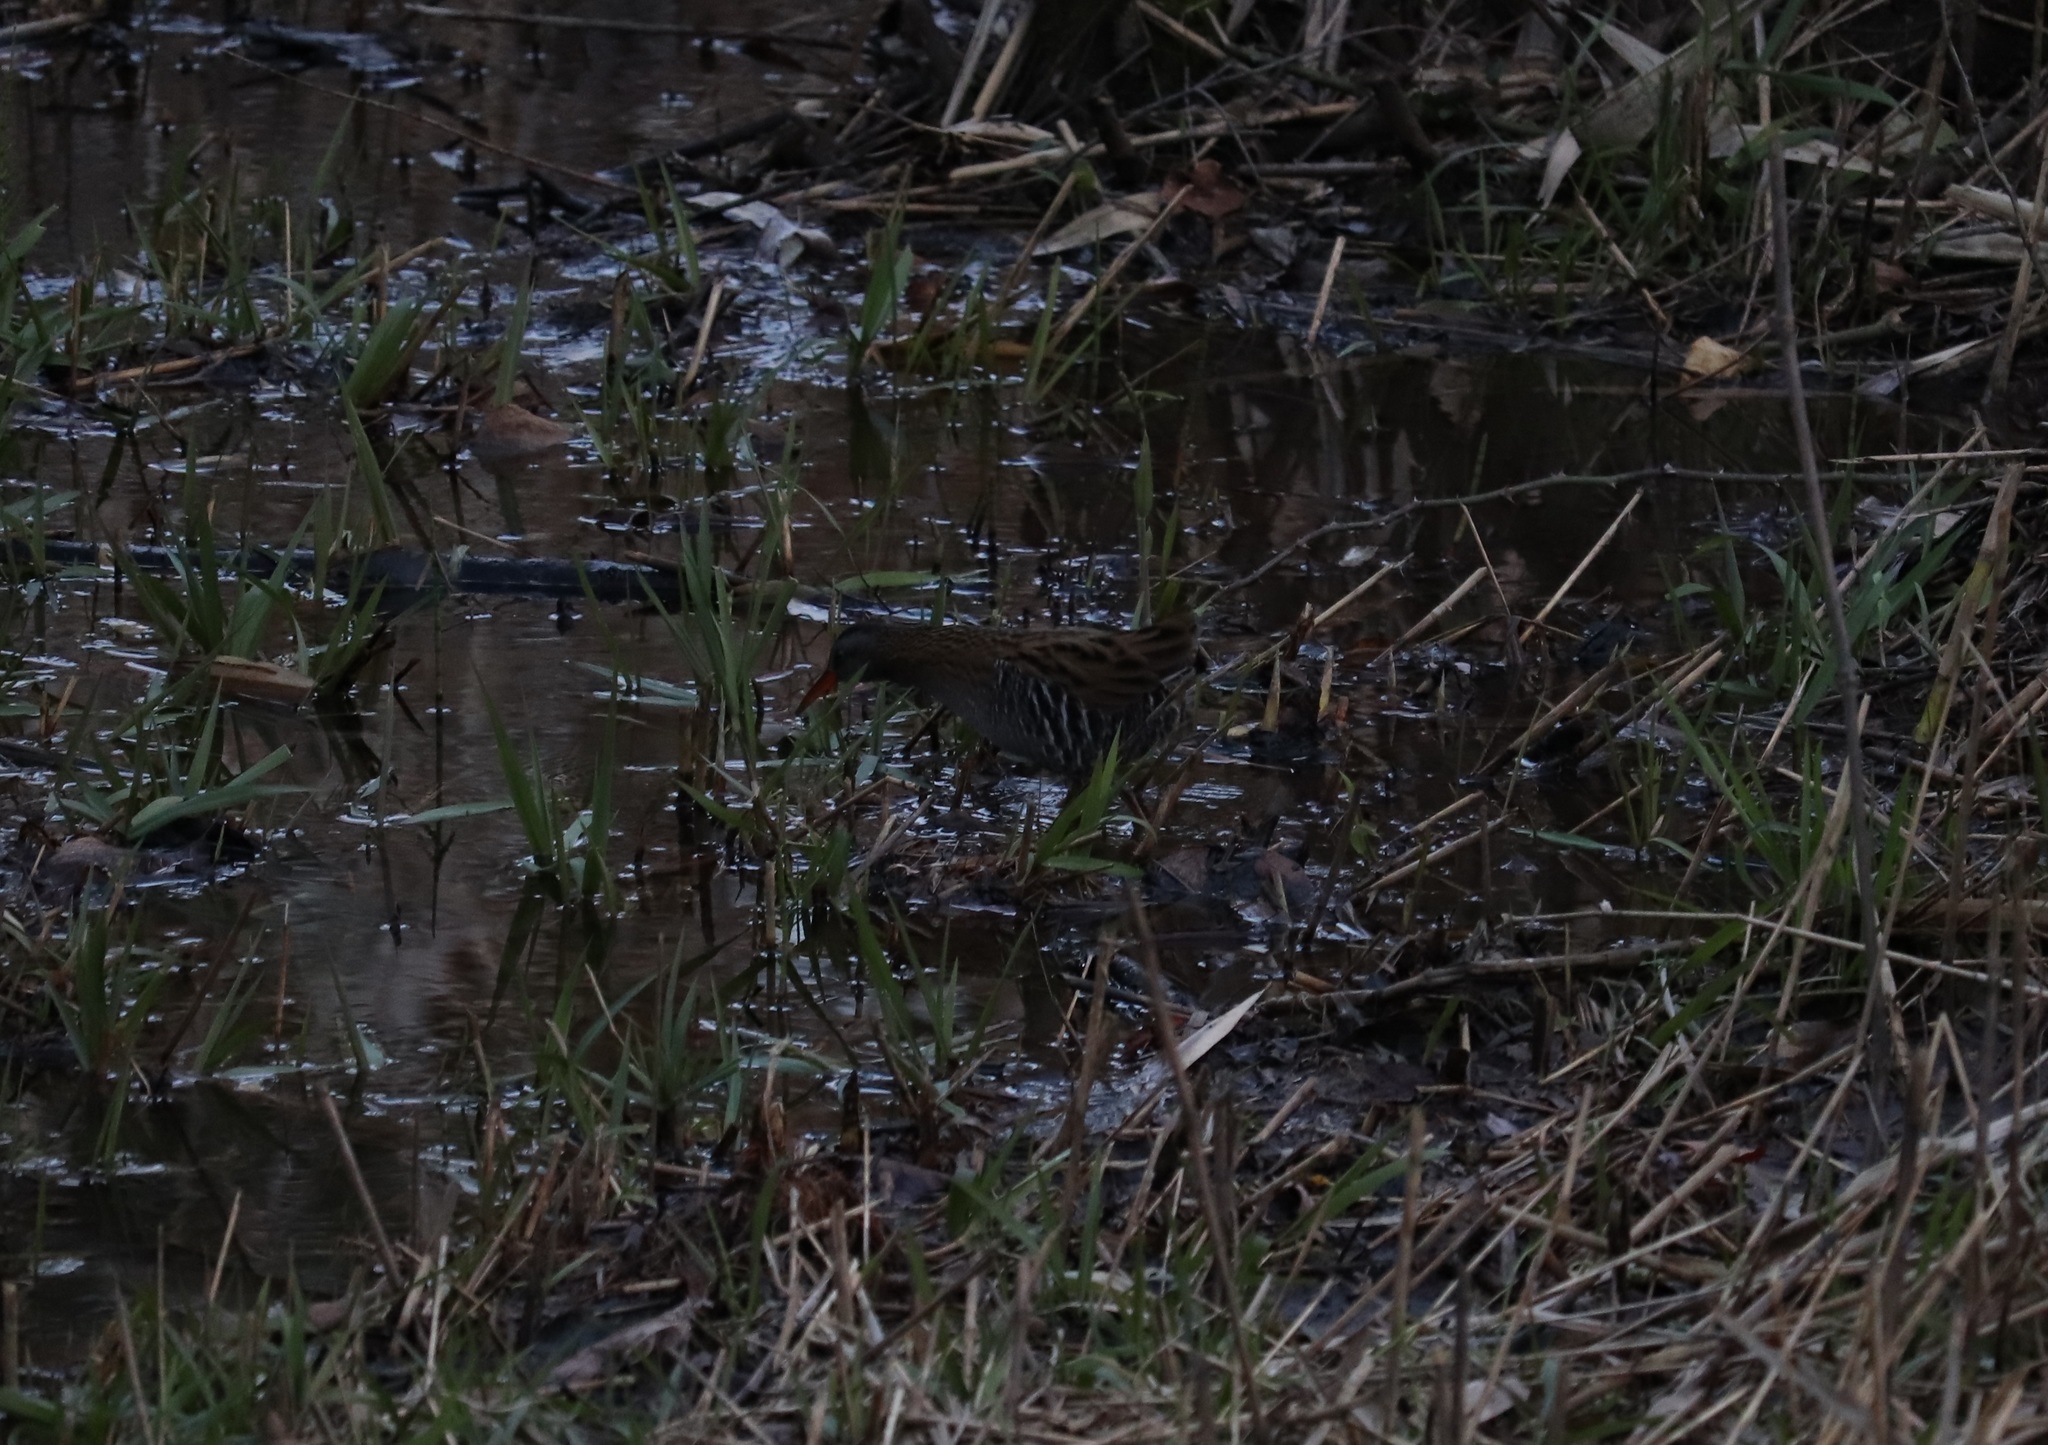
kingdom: Animalia
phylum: Chordata
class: Aves
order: Gruiformes
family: Rallidae
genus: Rallus
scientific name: Rallus indicus
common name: Brown-cheeked rail
